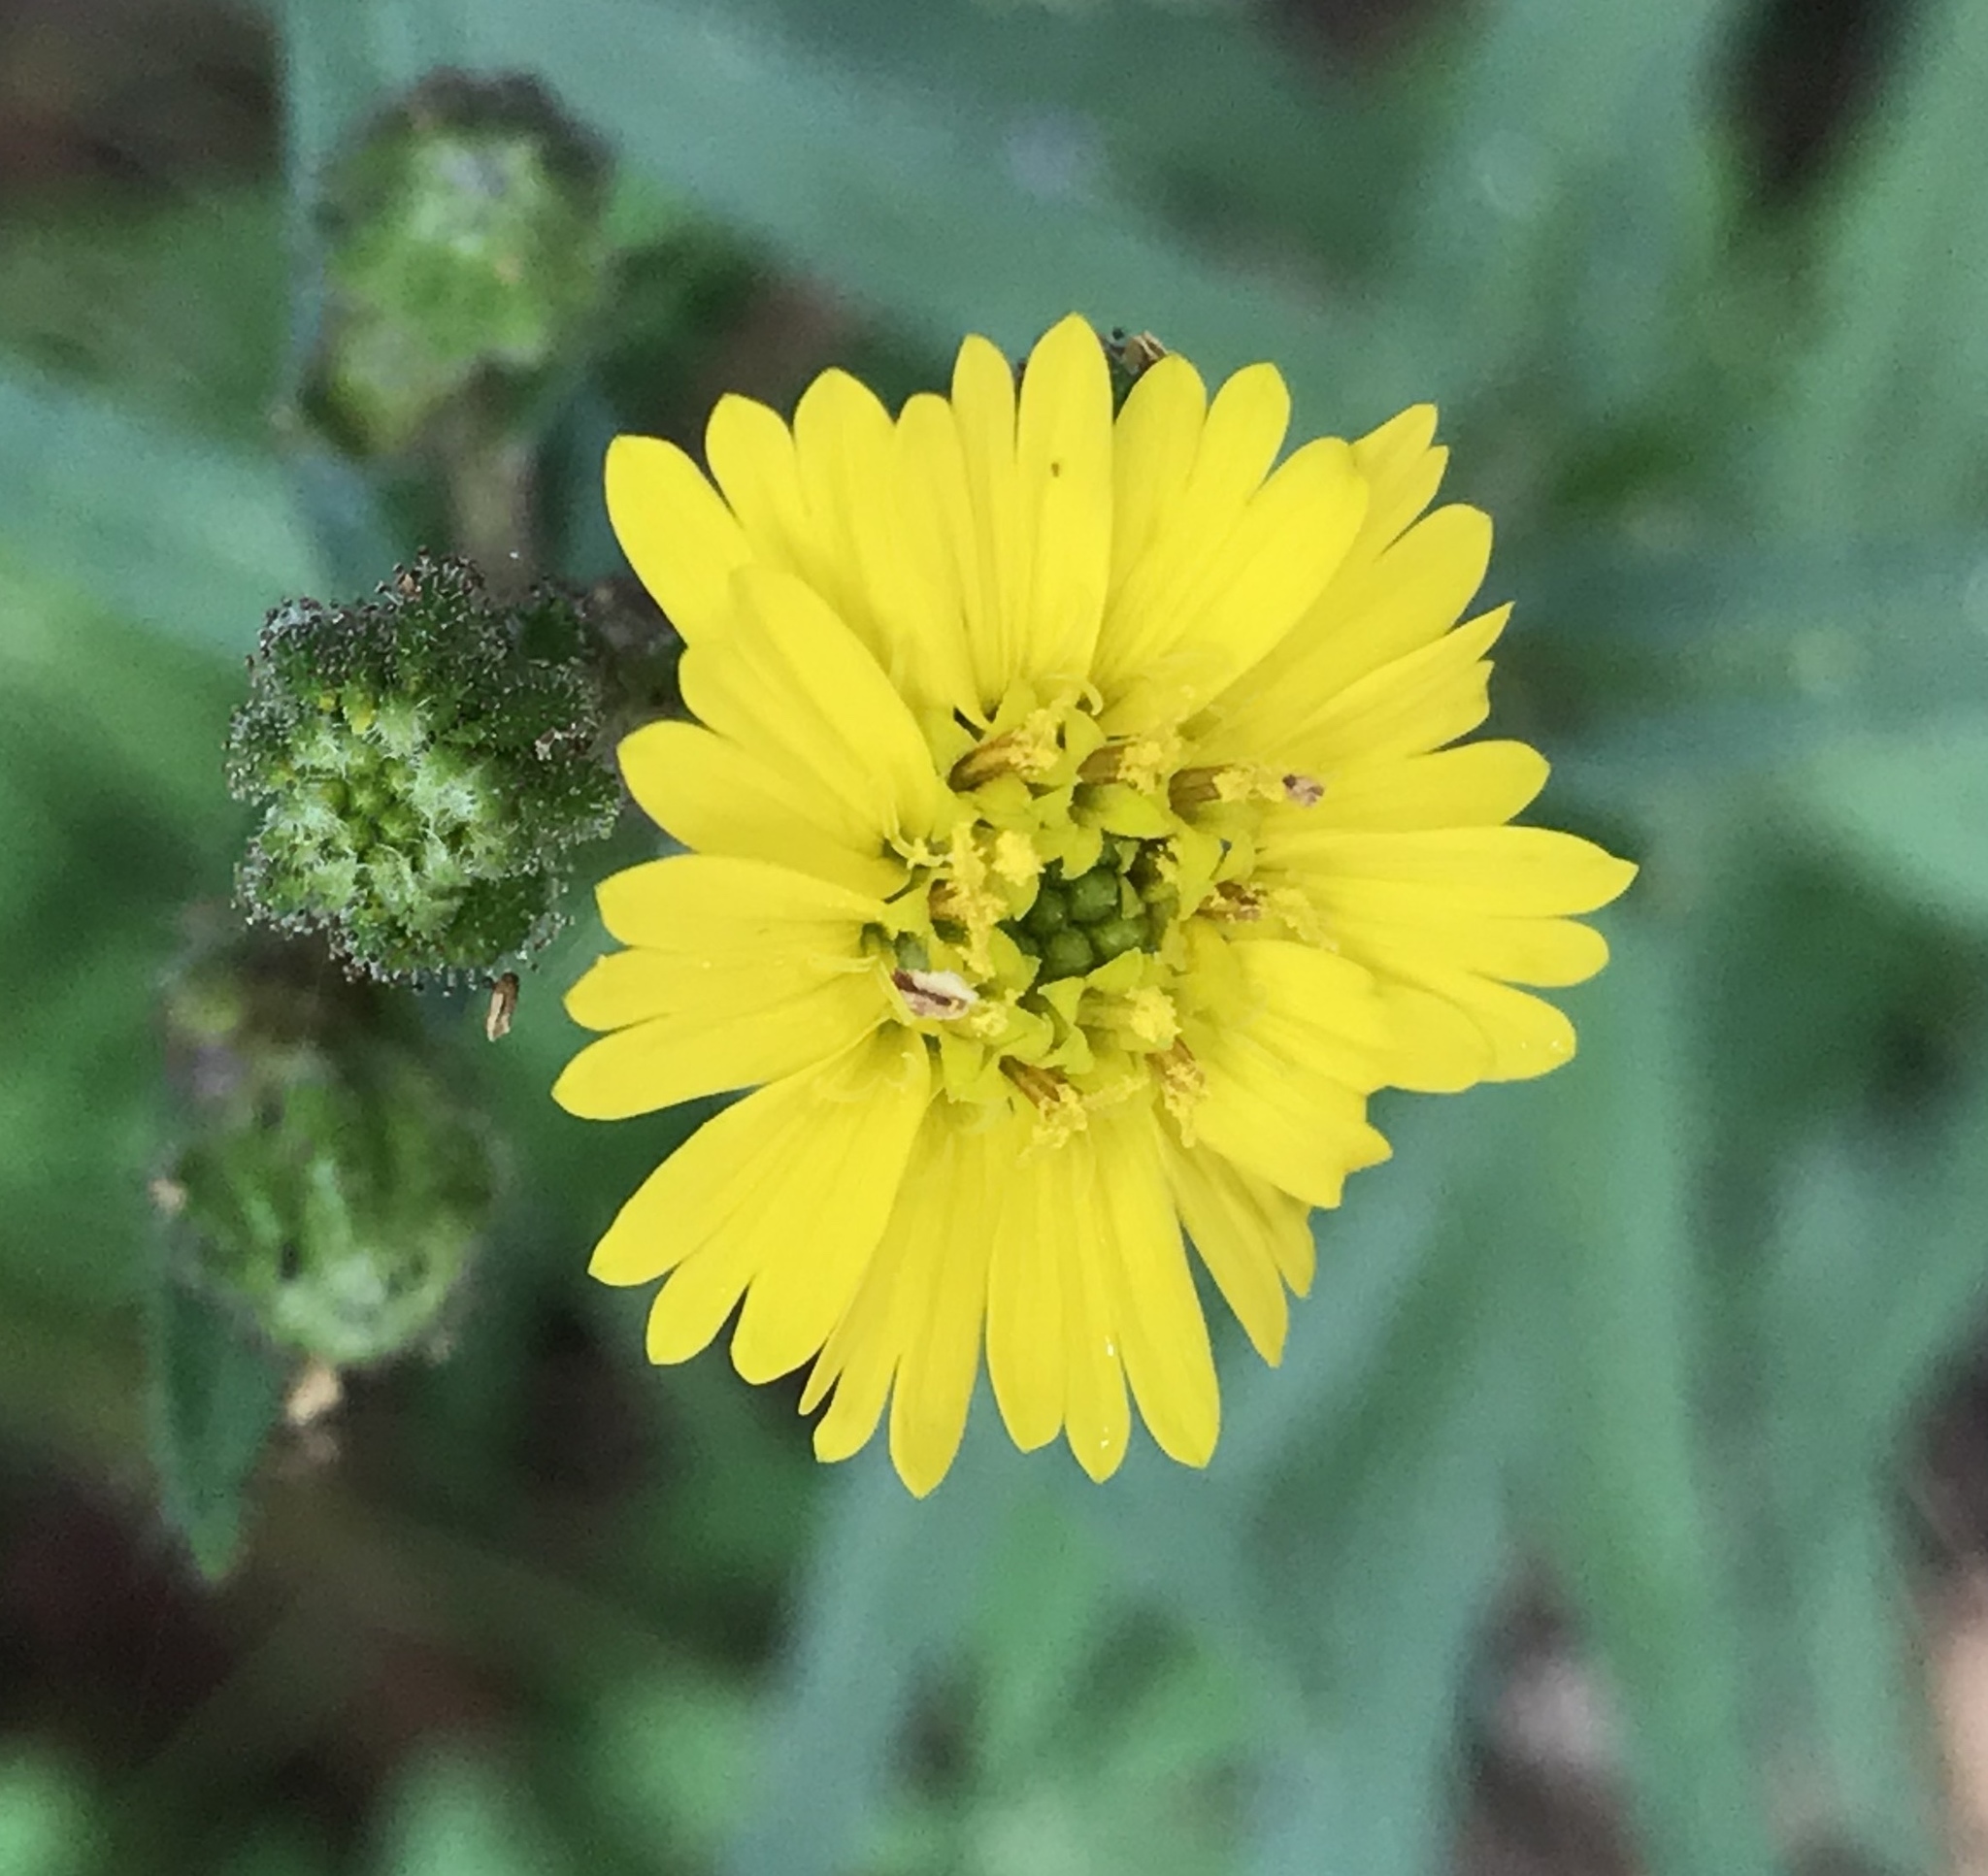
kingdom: Plantae
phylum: Tracheophyta
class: Magnoliopsida
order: Asterales
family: Asteraceae
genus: Anisocarpus
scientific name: Anisocarpus madioides
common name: Woodland madia
